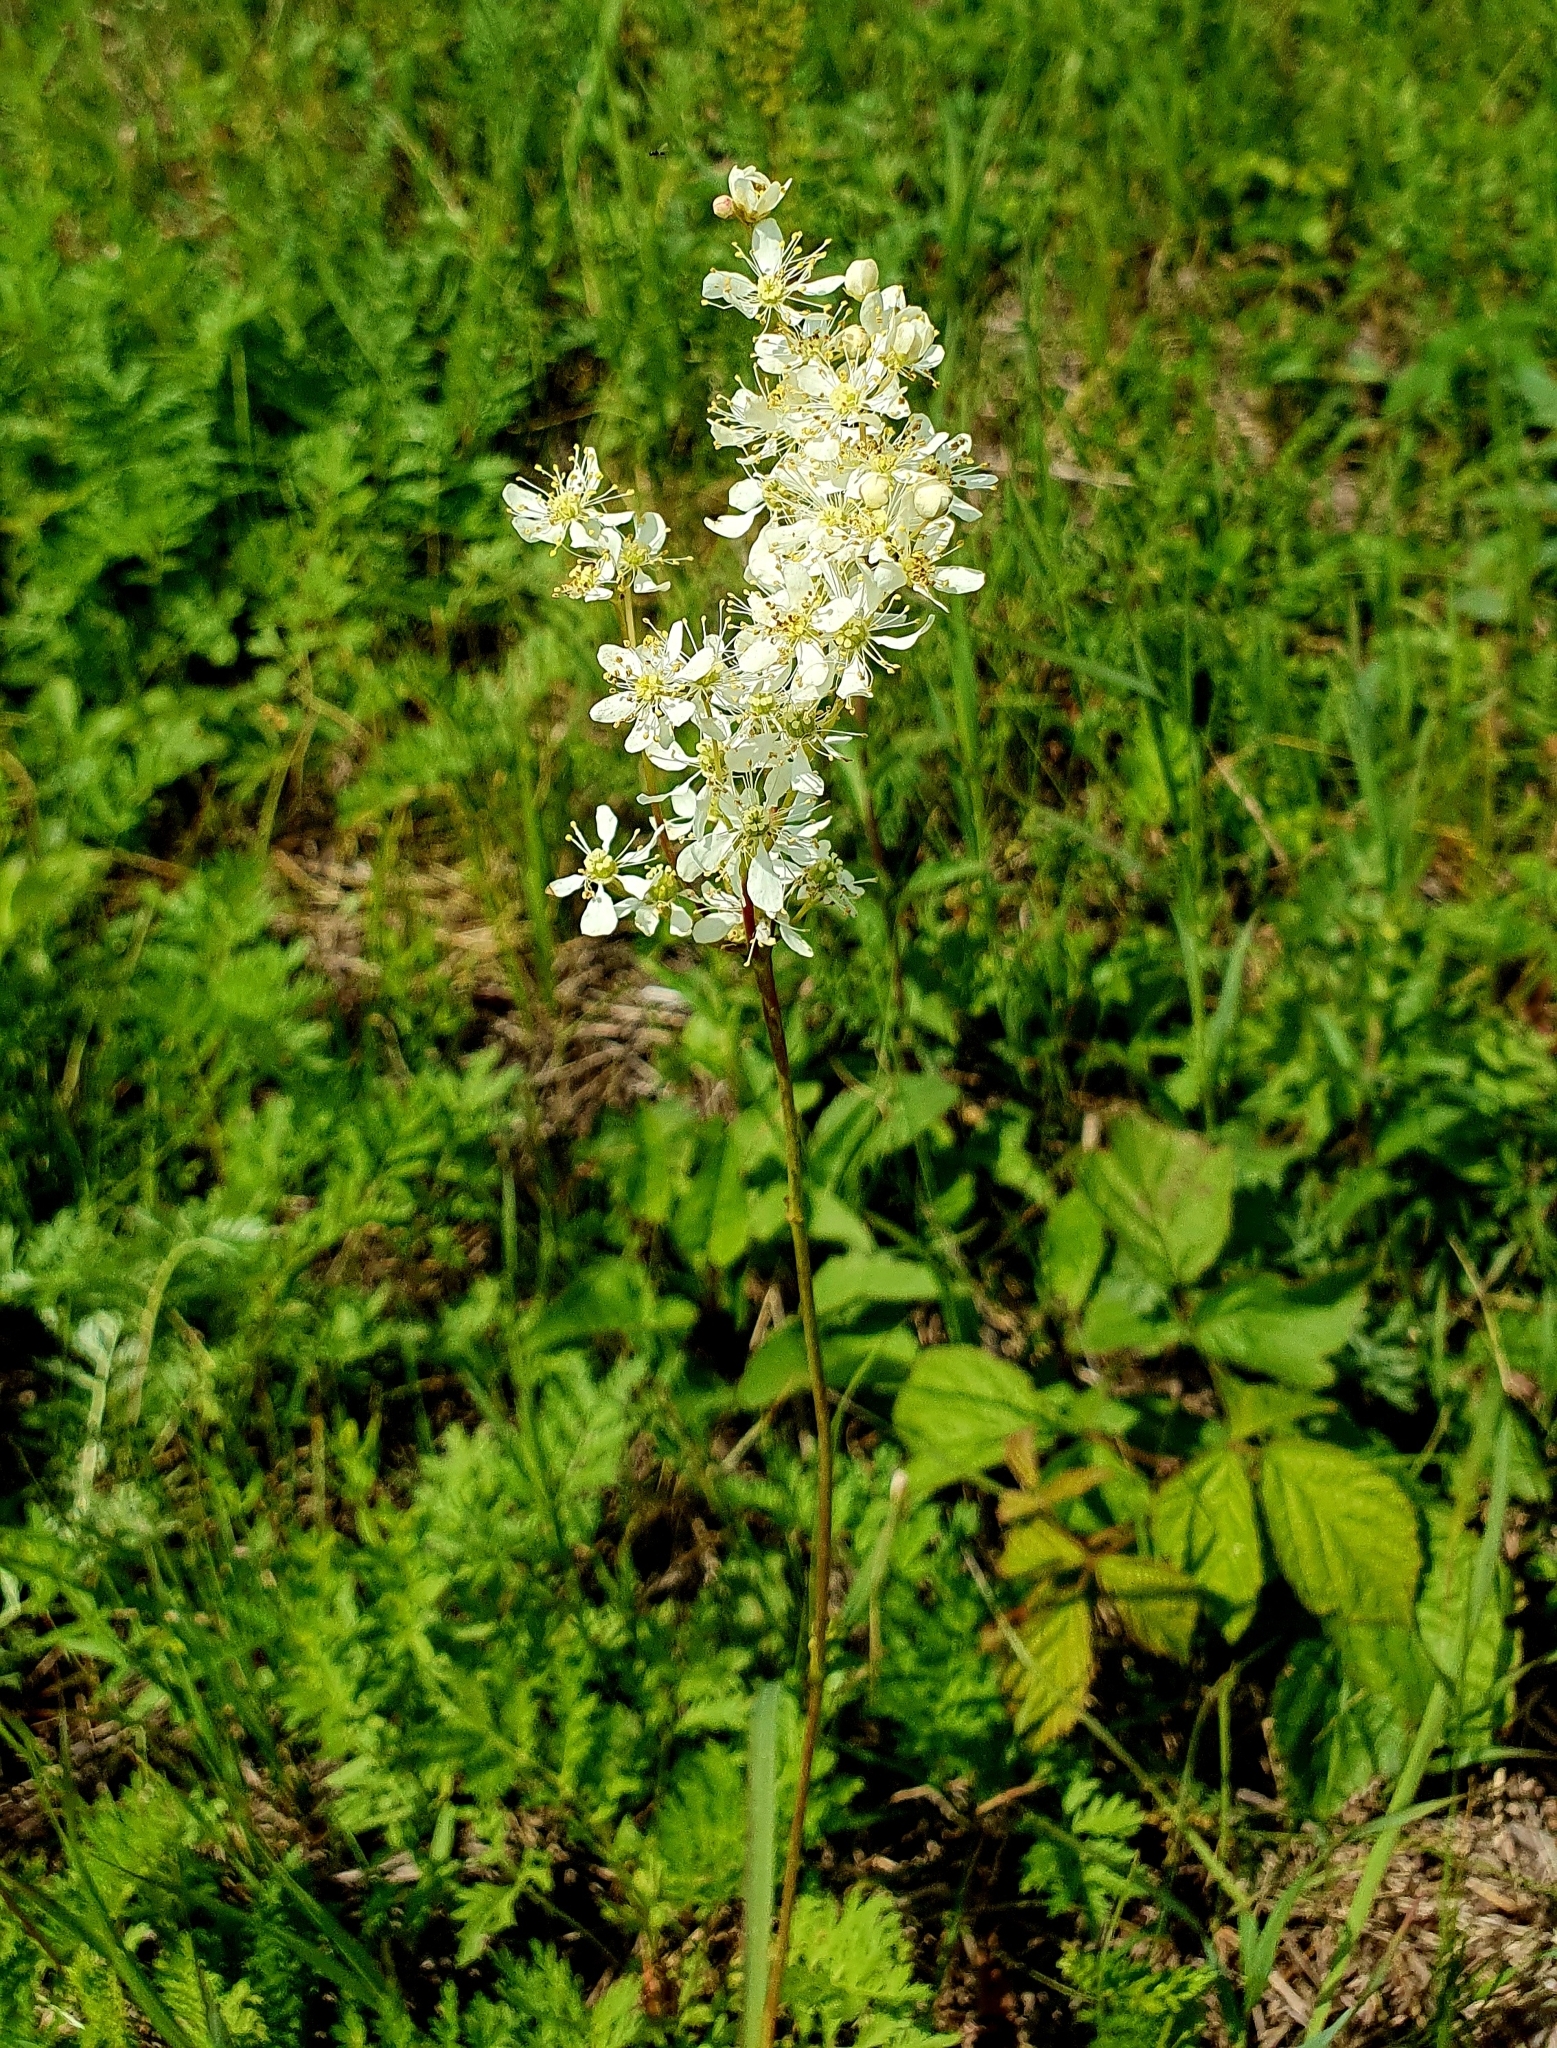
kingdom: Plantae
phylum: Tracheophyta
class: Magnoliopsida
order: Rosales
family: Rosaceae
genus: Filipendula
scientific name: Filipendula vulgaris
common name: Dropwort
